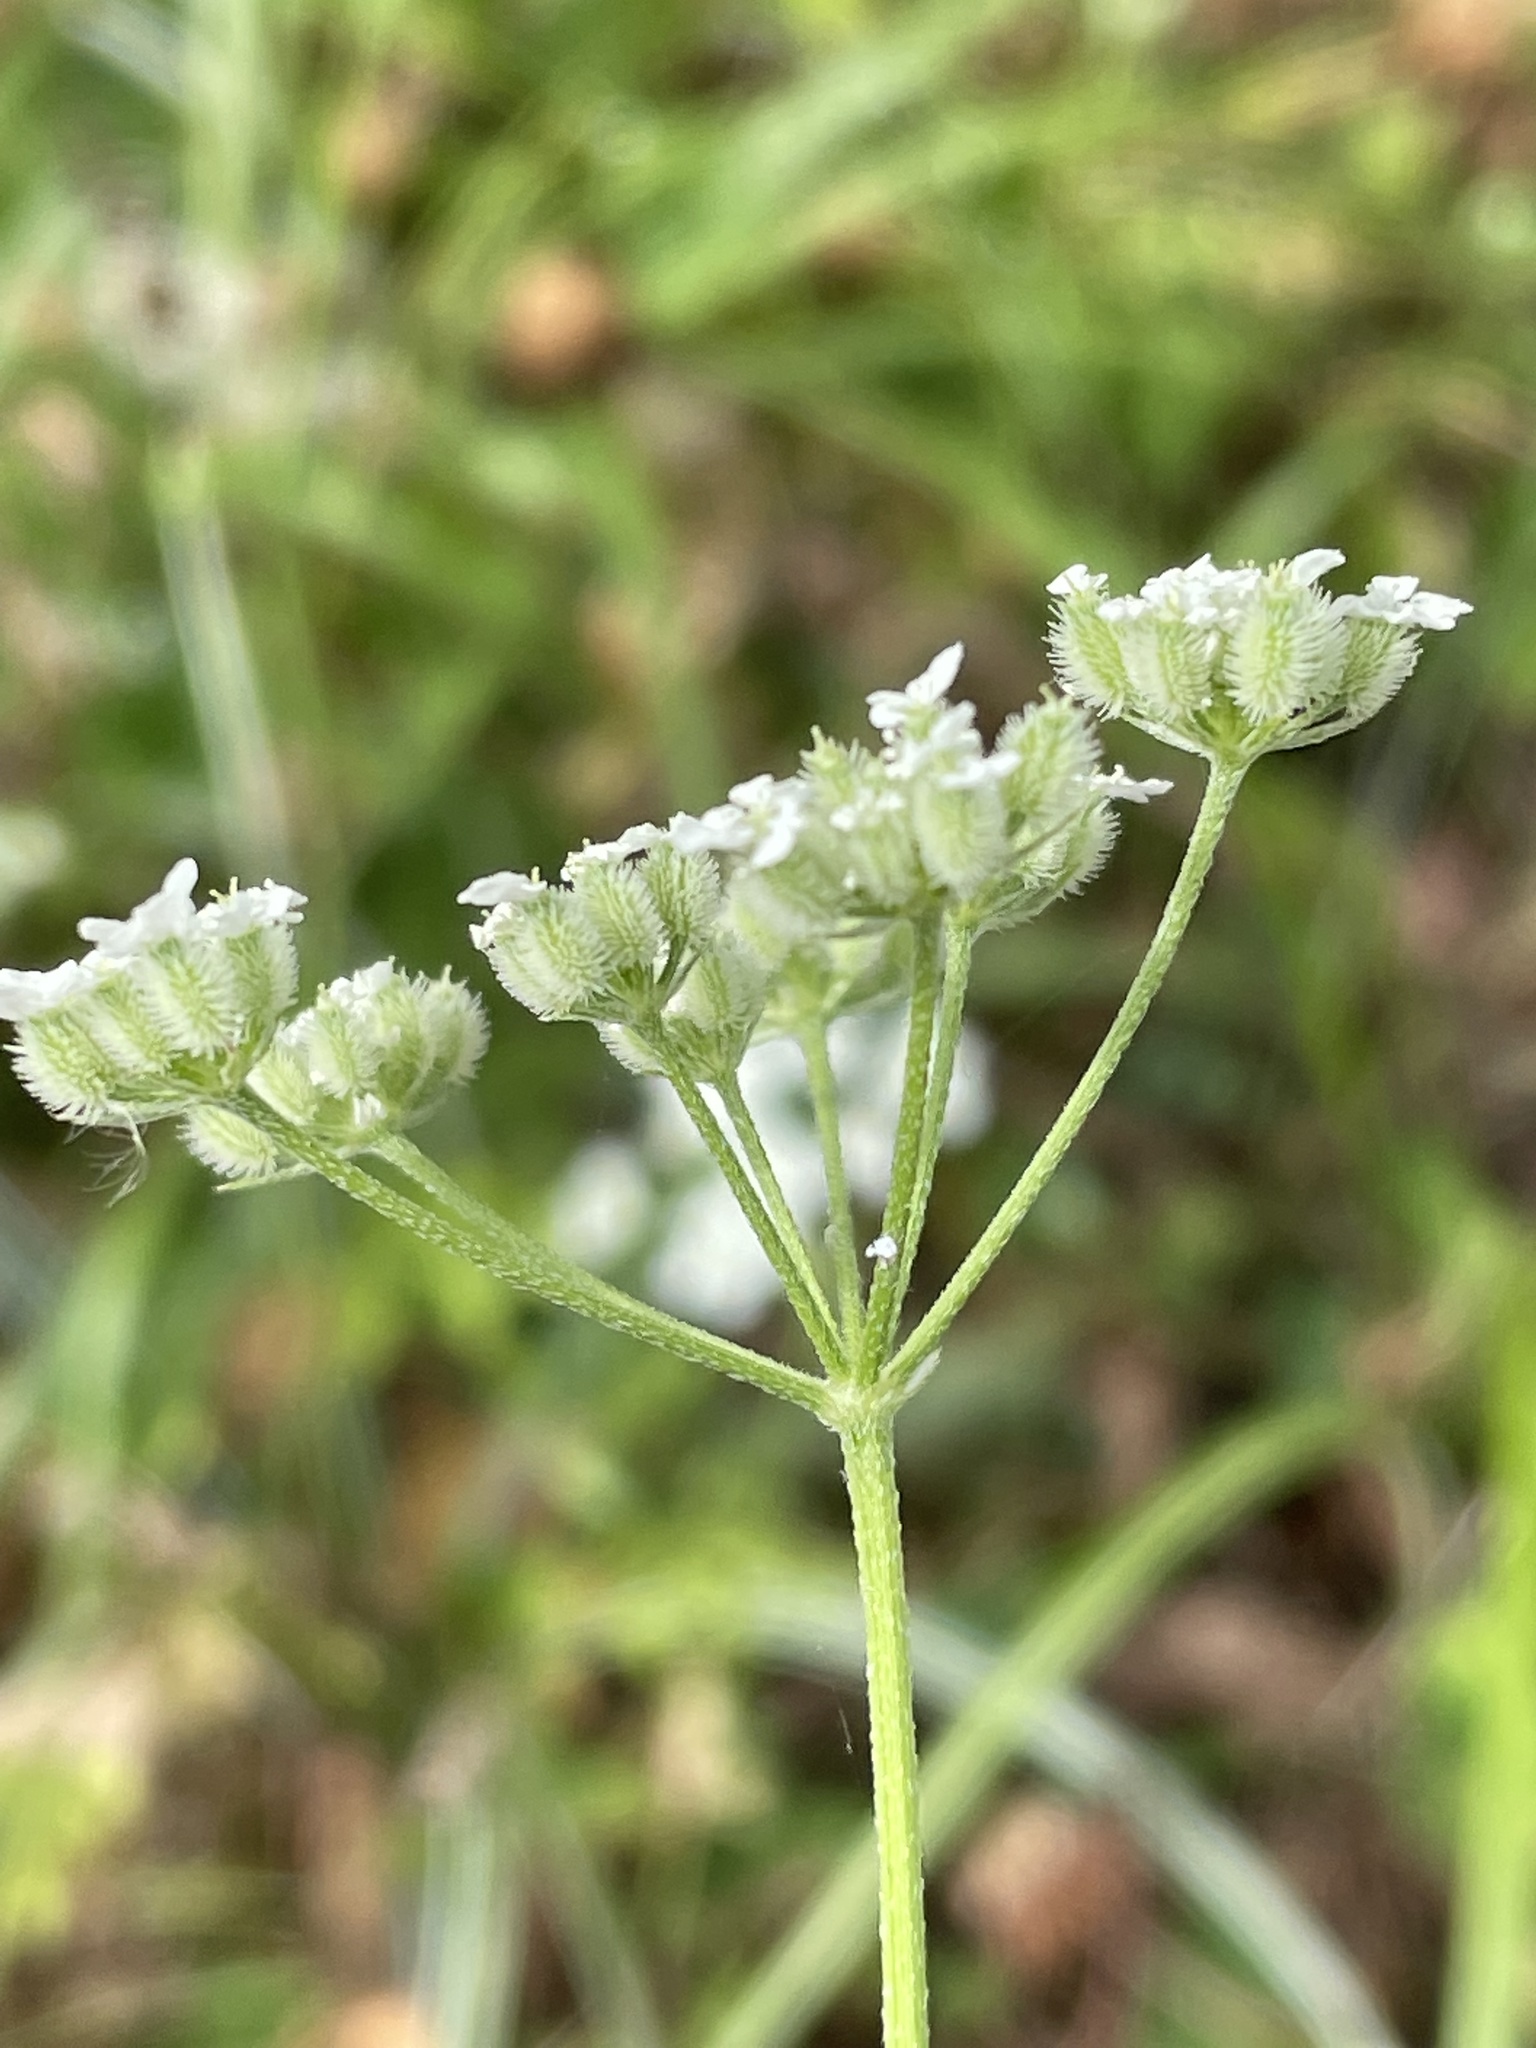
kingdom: Plantae
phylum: Tracheophyta
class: Magnoliopsida
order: Apiales
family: Apiaceae
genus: Torilis
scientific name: Torilis arvensis
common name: Spreading hedge-parsley
